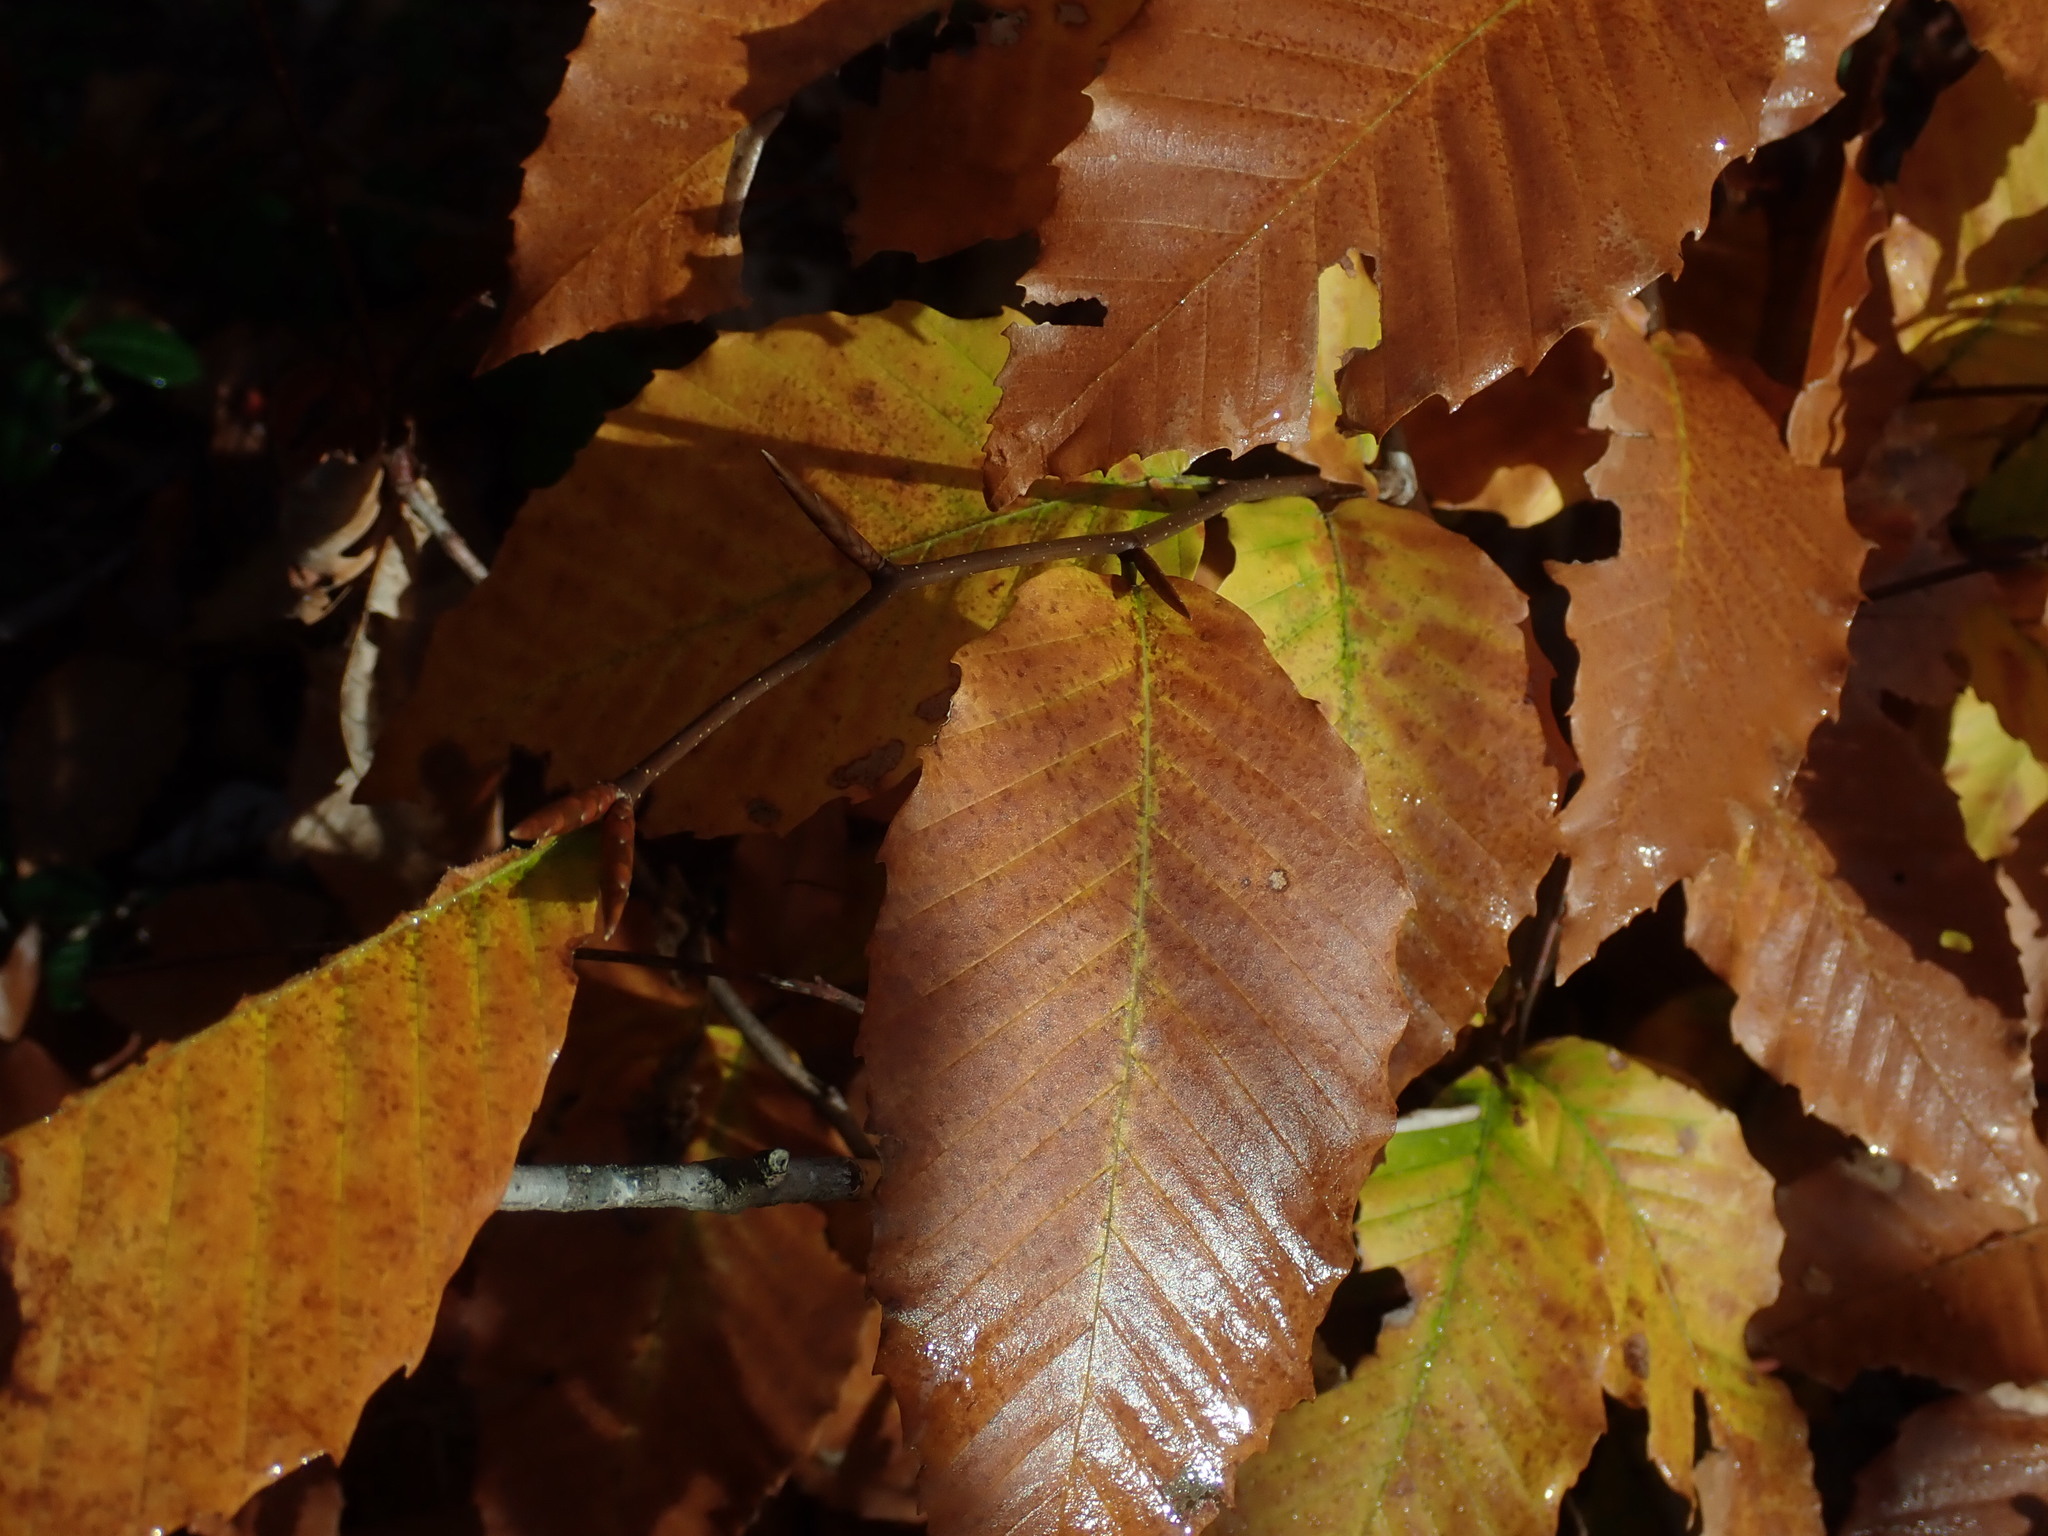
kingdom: Plantae
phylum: Tracheophyta
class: Magnoliopsida
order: Fagales
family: Fagaceae
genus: Fagus
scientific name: Fagus grandifolia
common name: American beech
